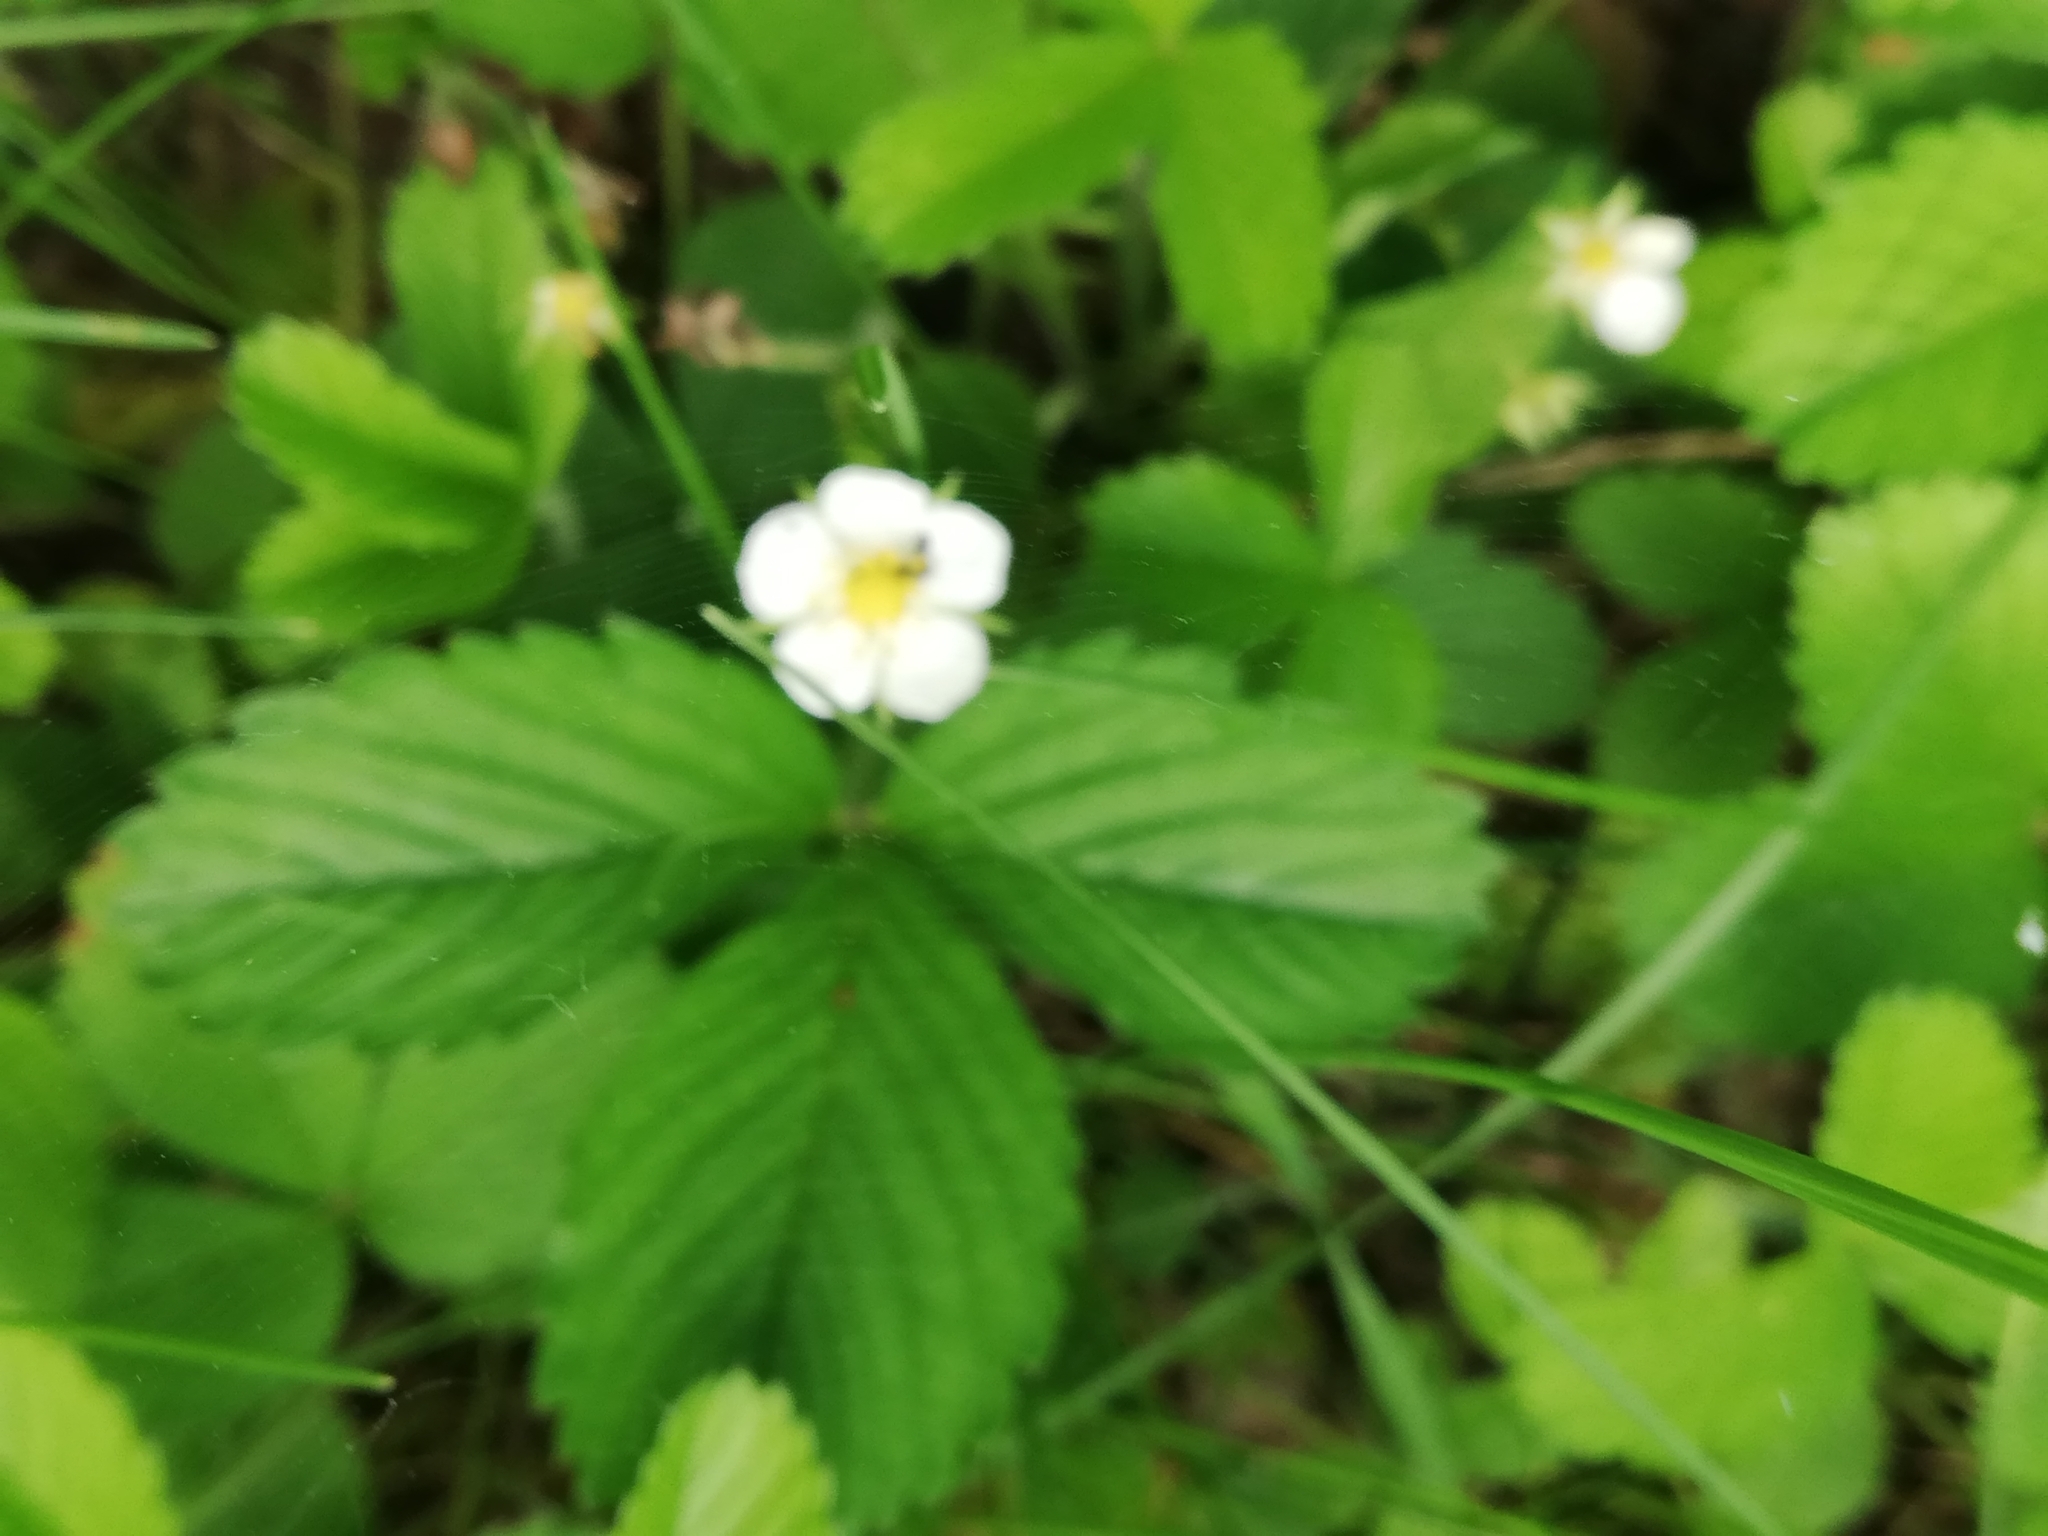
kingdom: Plantae
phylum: Tracheophyta
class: Magnoliopsida
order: Rosales
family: Rosaceae
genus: Fragaria
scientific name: Fragaria vesca
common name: Wild strawberry
